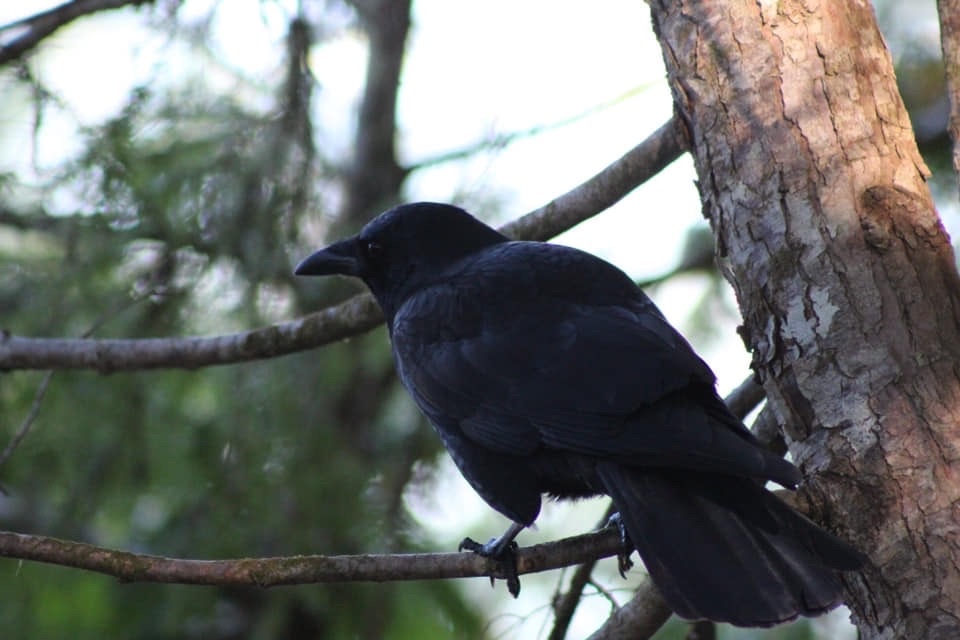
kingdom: Animalia
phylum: Chordata
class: Aves
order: Passeriformes
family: Corvidae
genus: Corvus
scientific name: Corvus brachyrhynchos
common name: American crow
